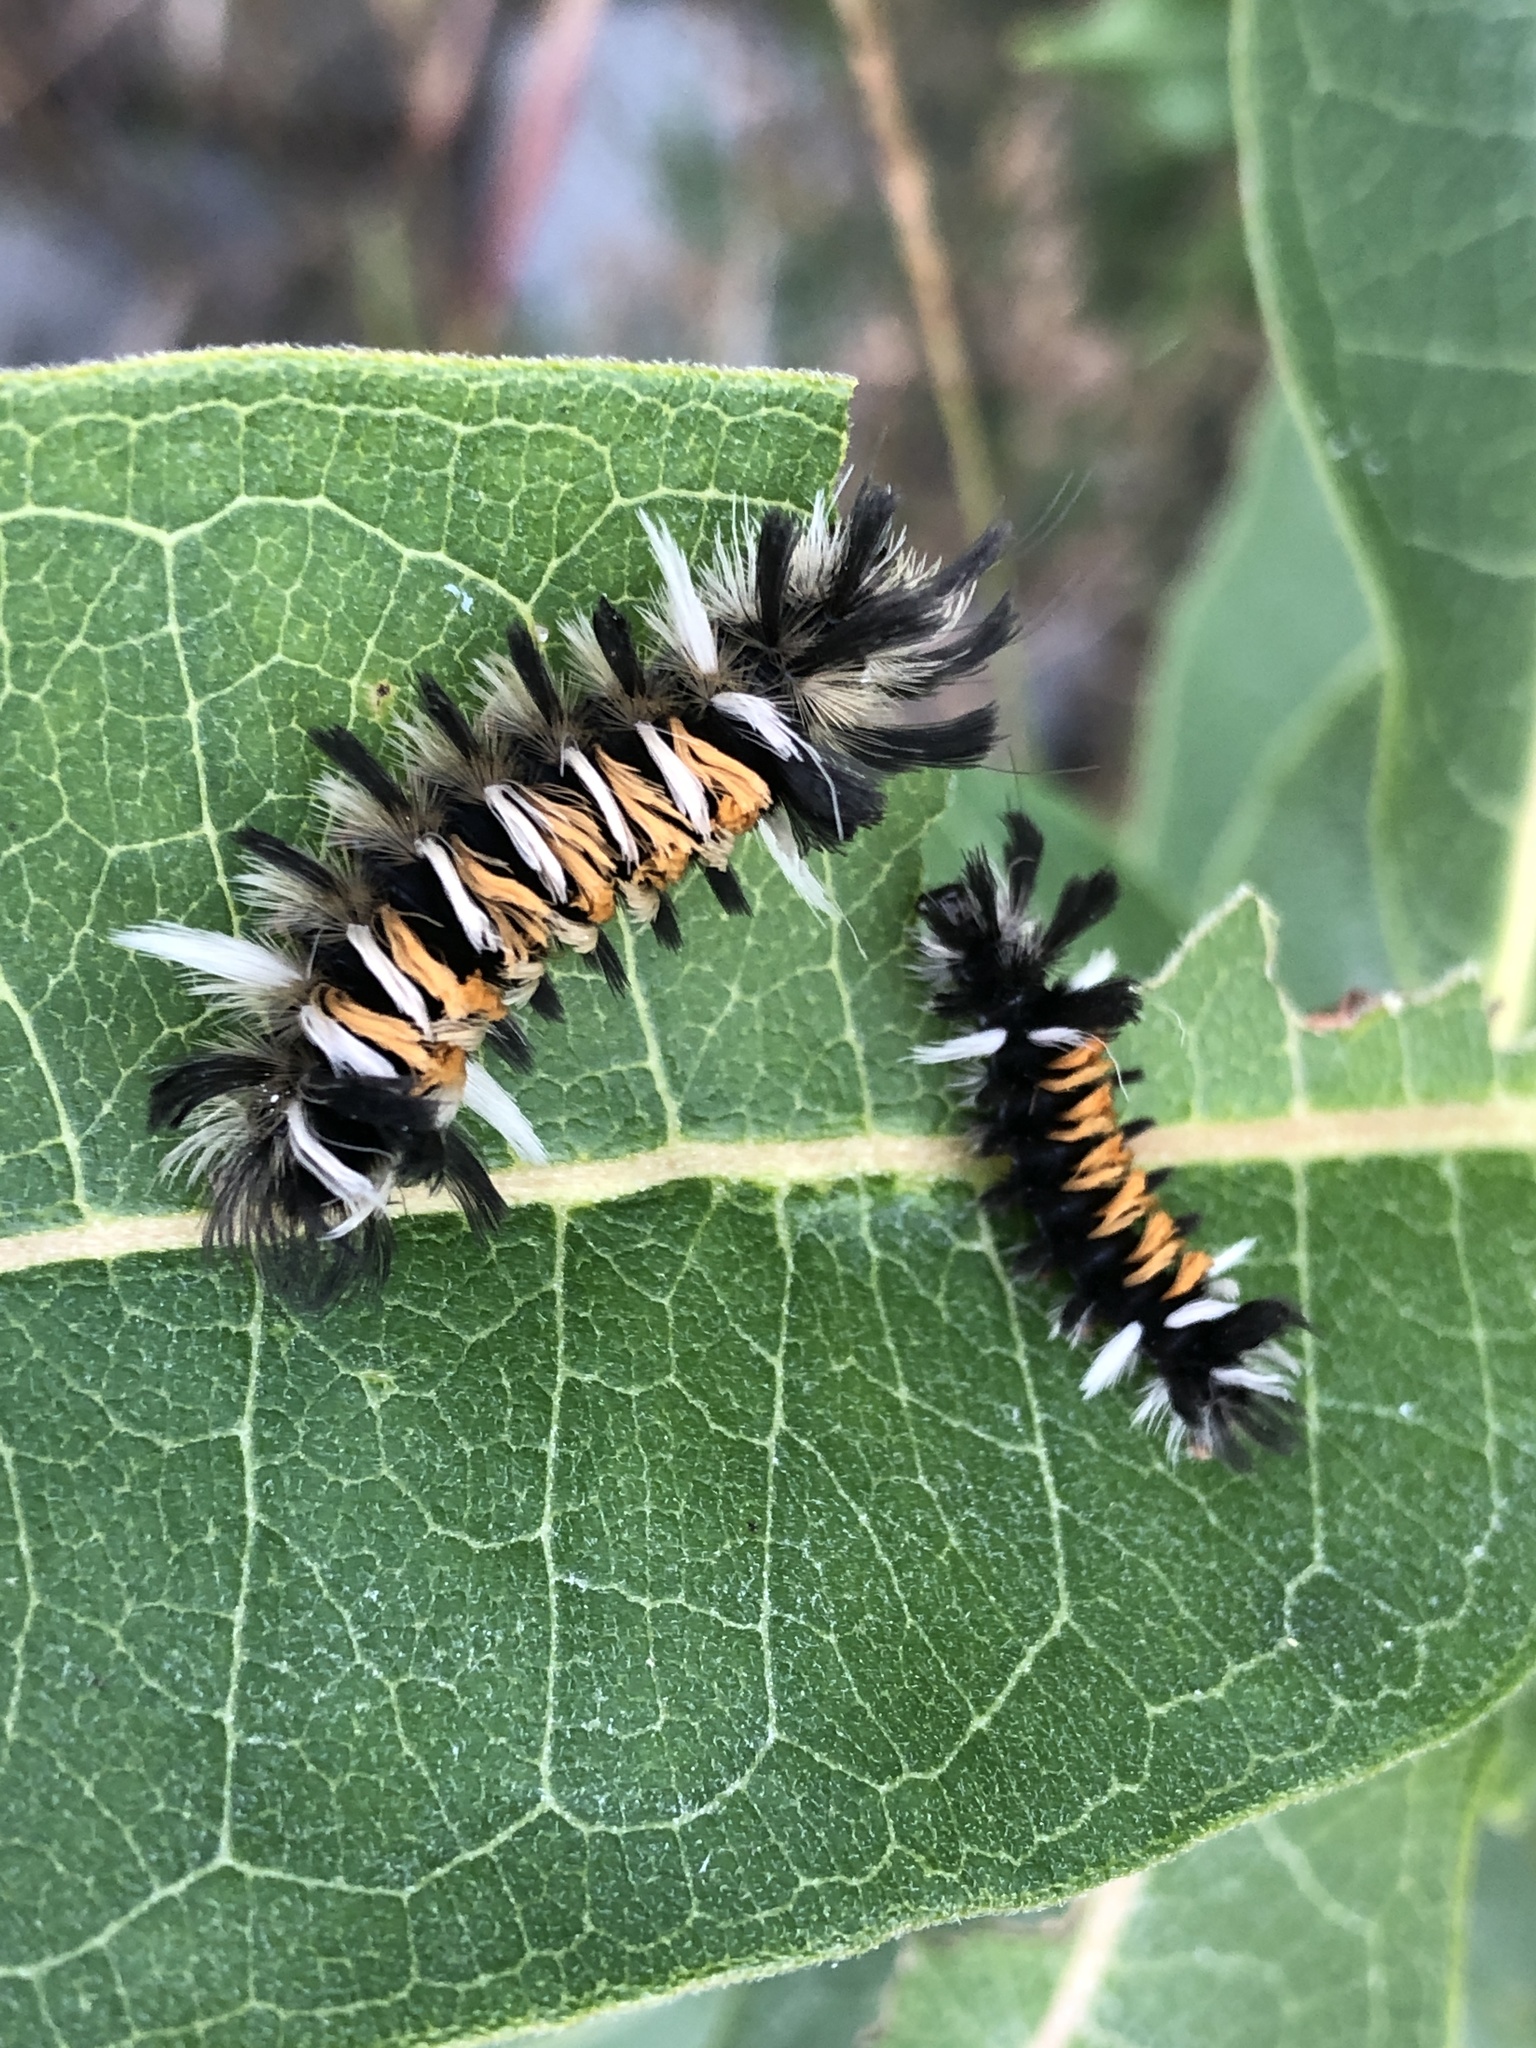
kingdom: Animalia
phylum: Arthropoda
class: Insecta
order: Lepidoptera
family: Erebidae
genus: Euchaetes
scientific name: Euchaetes egle
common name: Milkweed tussock moth
